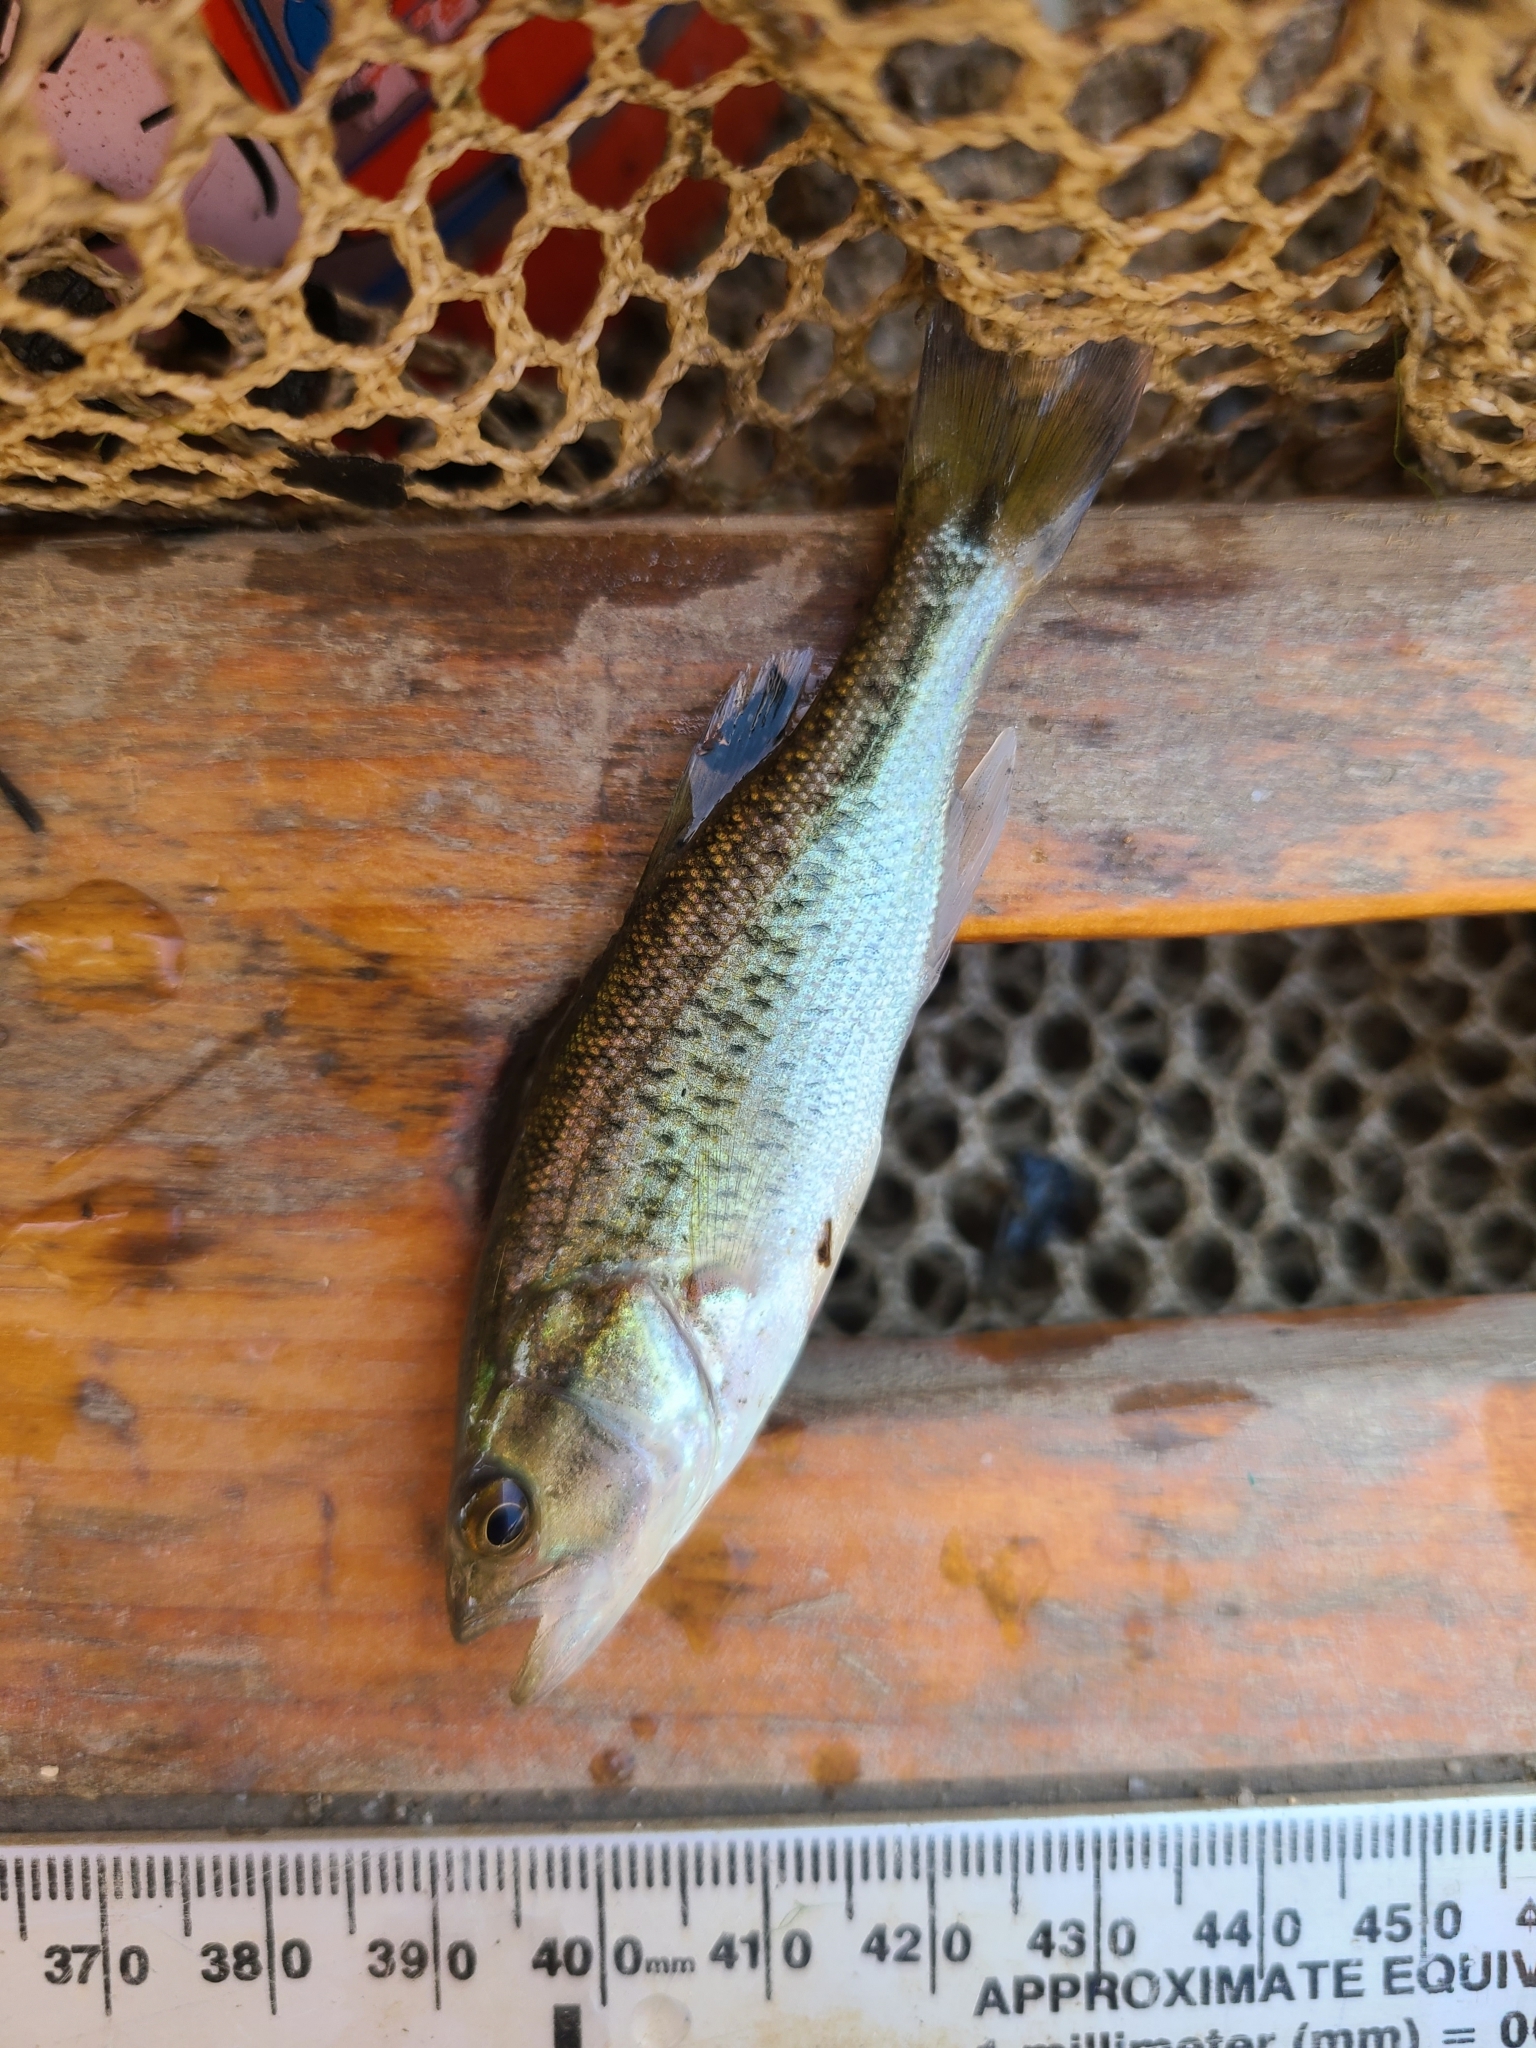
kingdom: Animalia
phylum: Chordata
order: Perciformes
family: Centrarchidae
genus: Micropterus
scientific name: Micropterus
